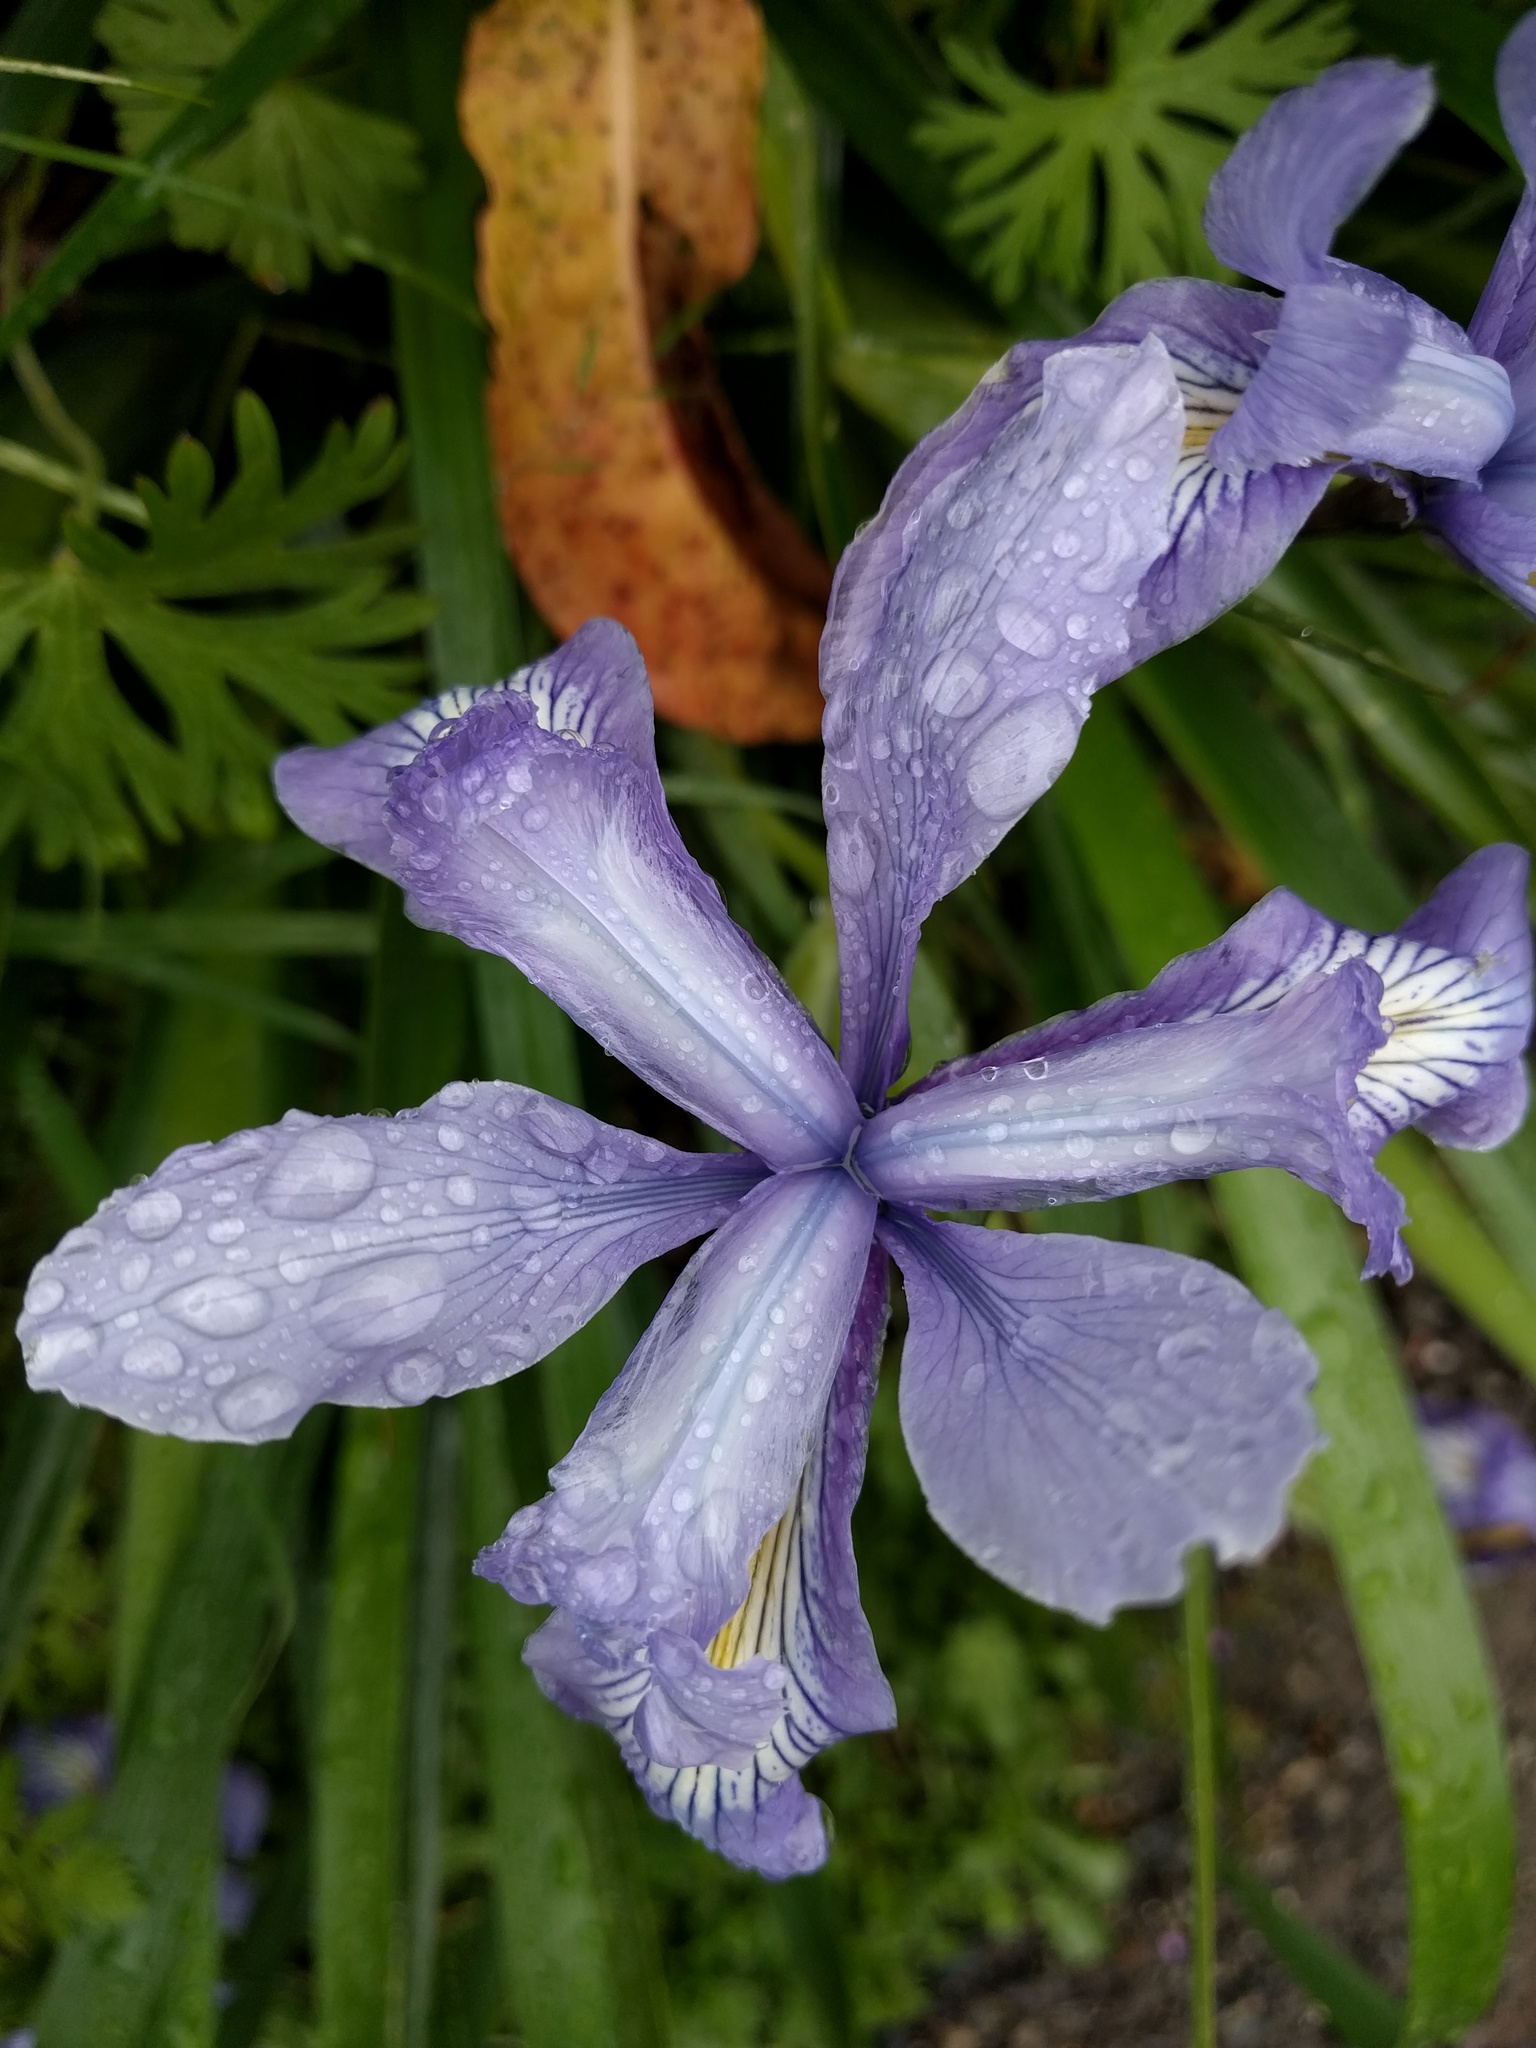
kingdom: Plantae
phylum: Tracheophyta
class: Liliopsida
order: Asparagales
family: Iridaceae
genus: Iris
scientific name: Iris douglasiana
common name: Marin iris
